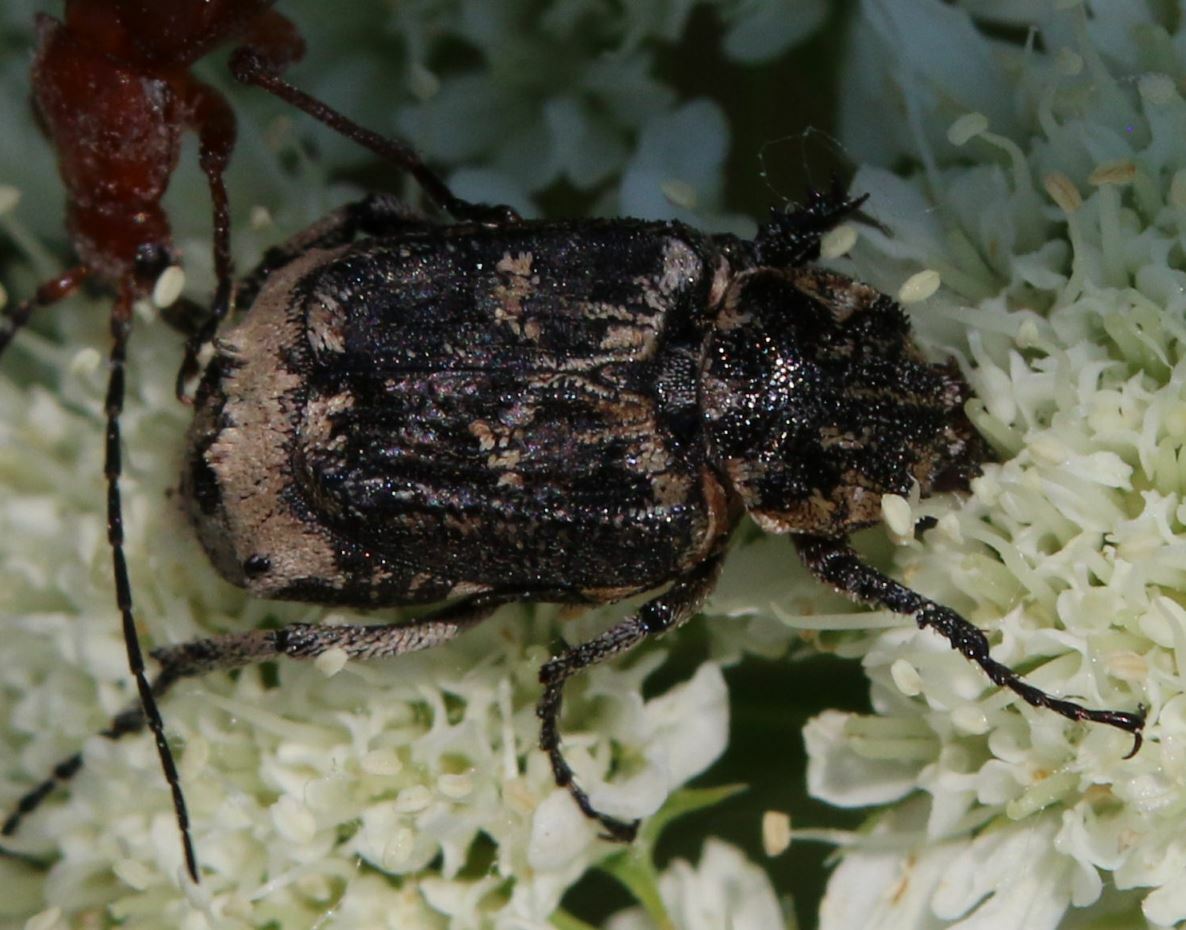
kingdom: Animalia
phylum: Arthropoda
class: Insecta
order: Coleoptera
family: Scarabaeidae
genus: Valgus
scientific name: Valgus hemipterus
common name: Bug flower chafer
